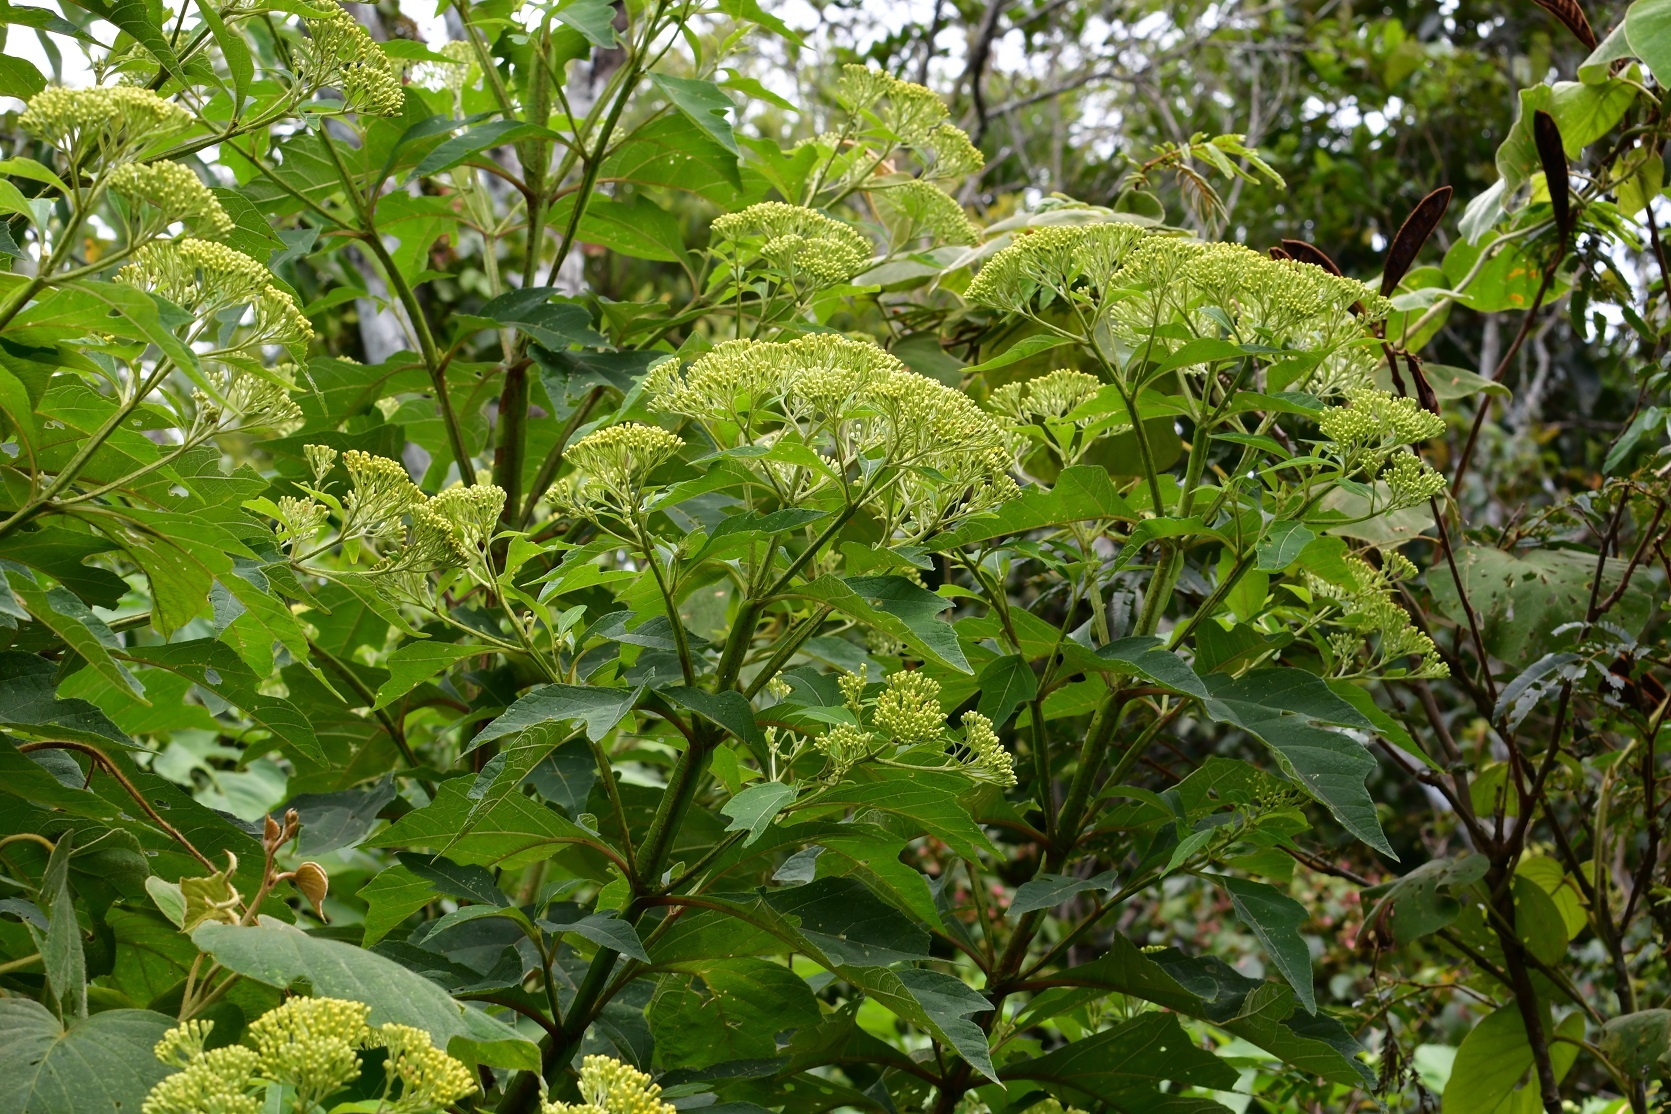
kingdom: Plantae
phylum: Tracheophyta
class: Magnoliopsida
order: Asterales
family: Asteraceae
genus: Verbesina
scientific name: Verbesina turbacensis
